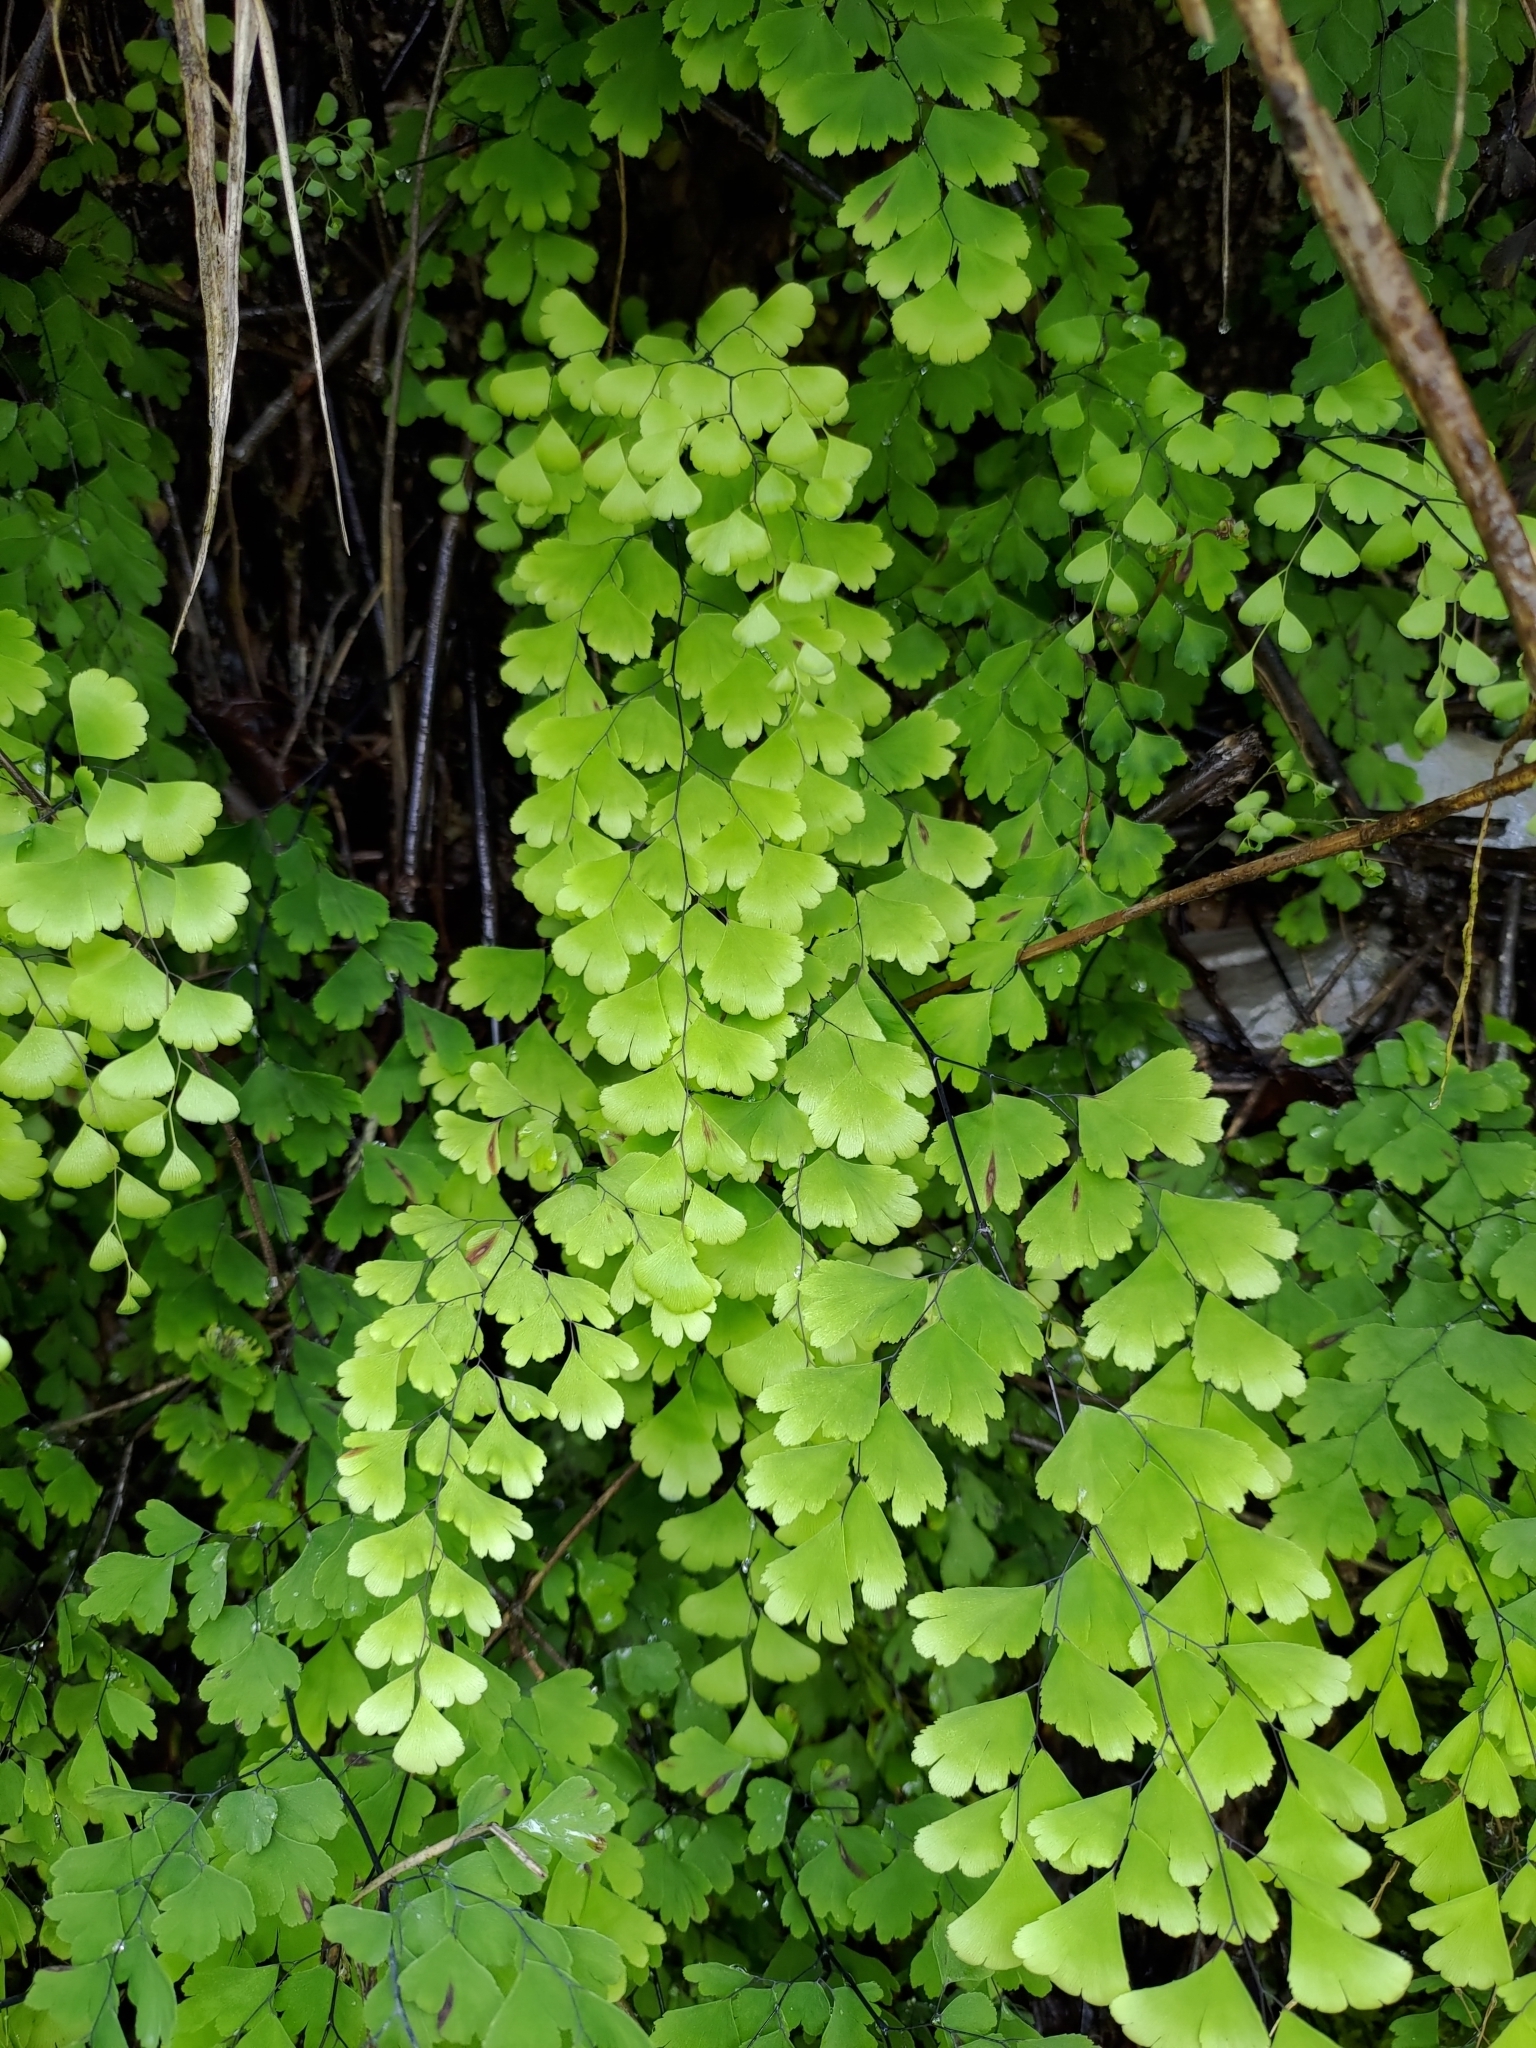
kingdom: Plantae
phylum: Tracheophyta
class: Polypodiopsida
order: Polypodiales
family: Pteridaceae
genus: Adiantum
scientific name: Adiantum capillus-veneris
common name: Maidenhair fern
